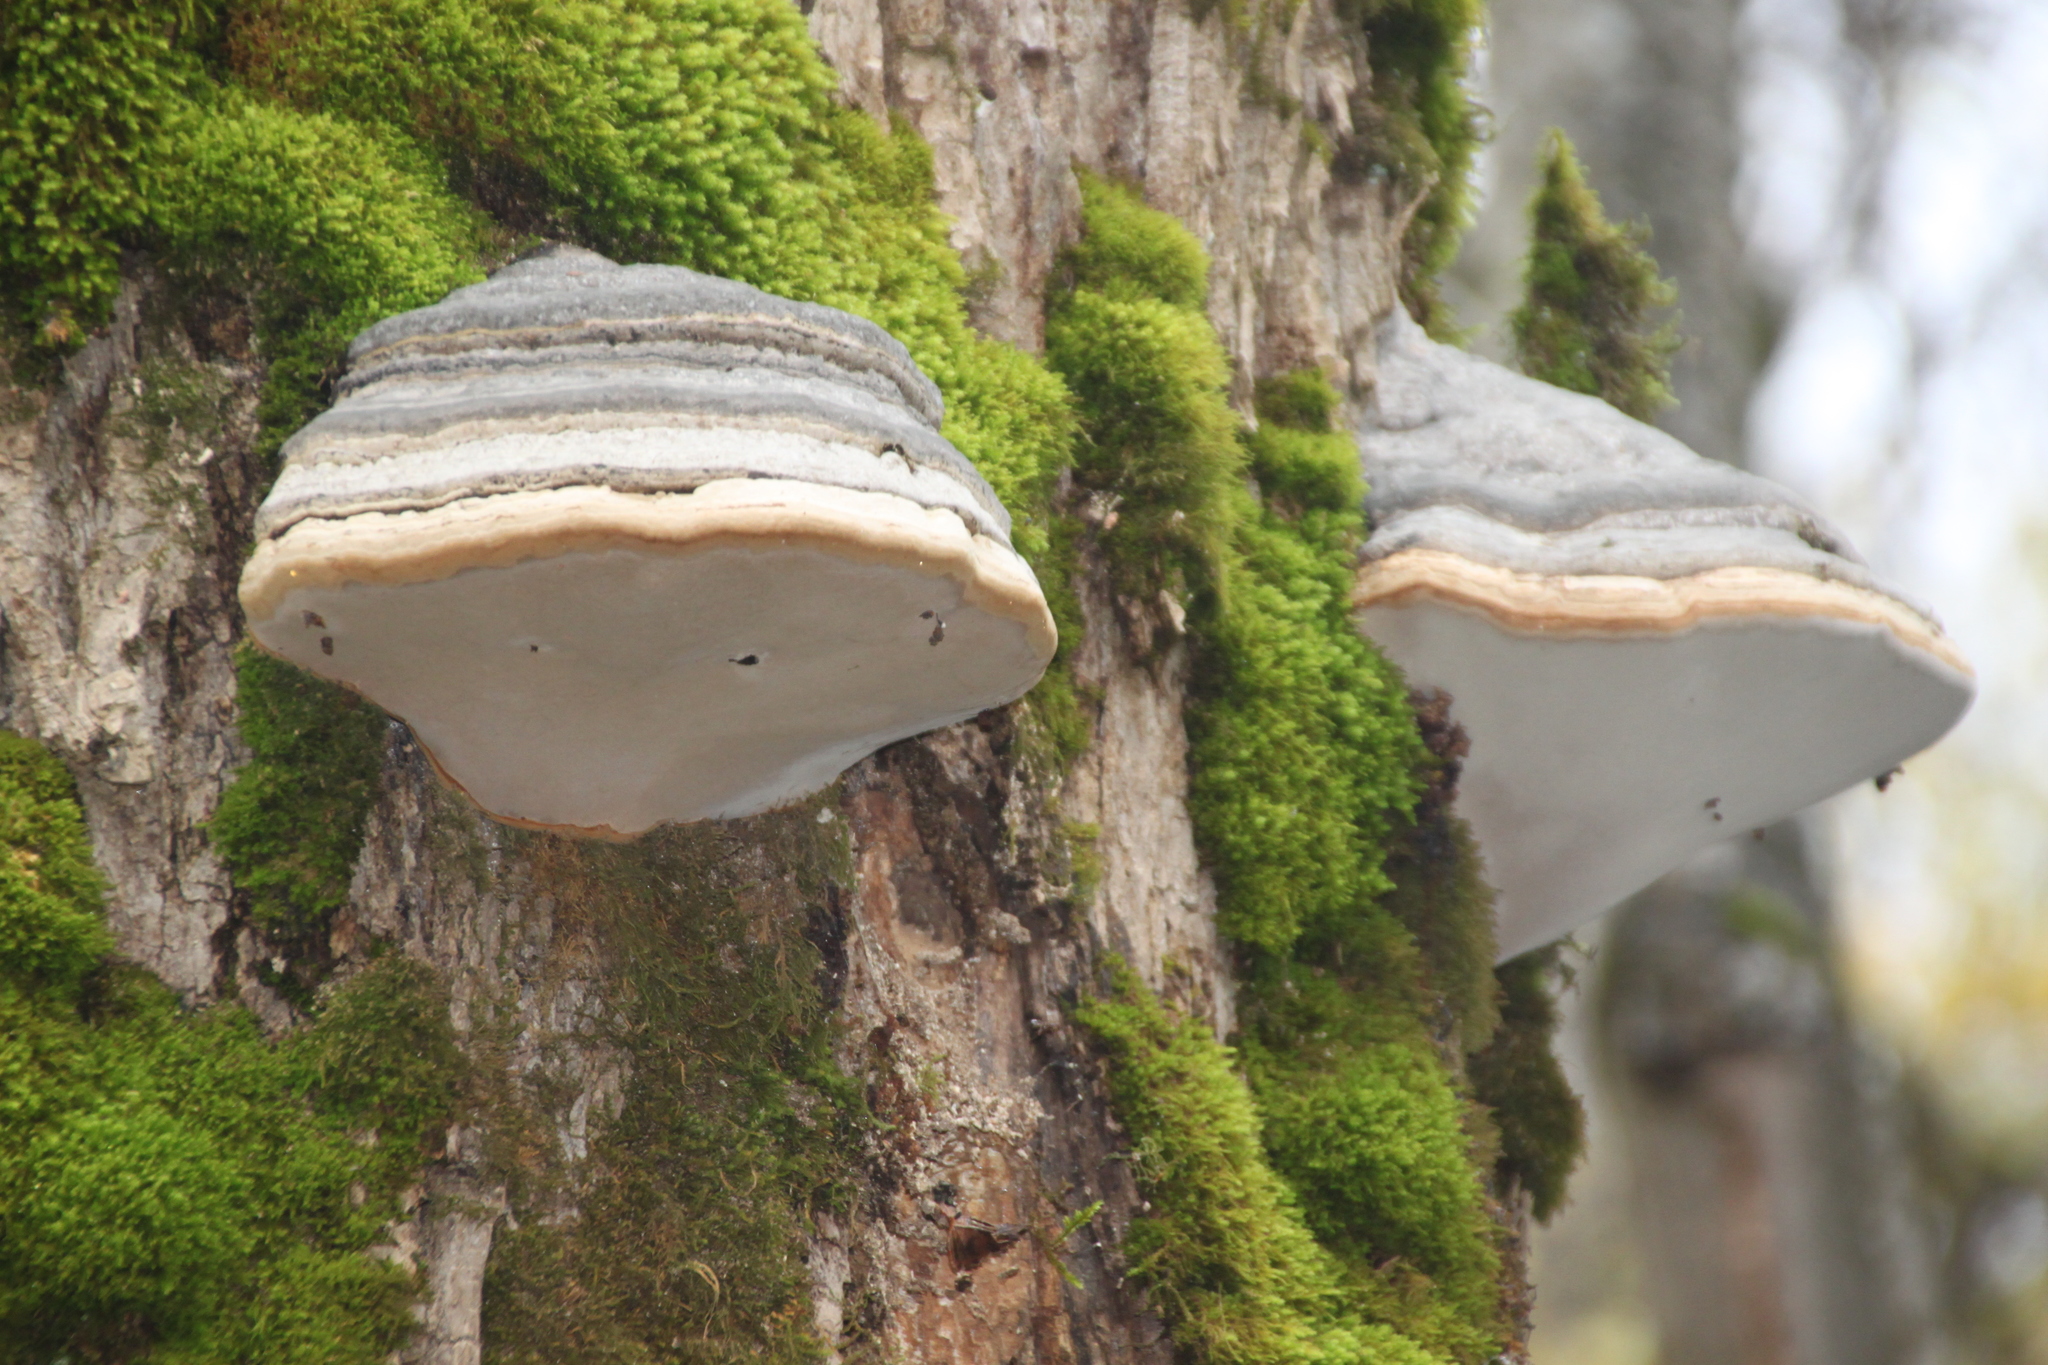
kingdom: Fungi
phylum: Basidiomycota
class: Agaricomycetes
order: Polyporales
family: Polyporaceae
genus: Fomes
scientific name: Fomes fomentarius
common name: Hoof fungus
